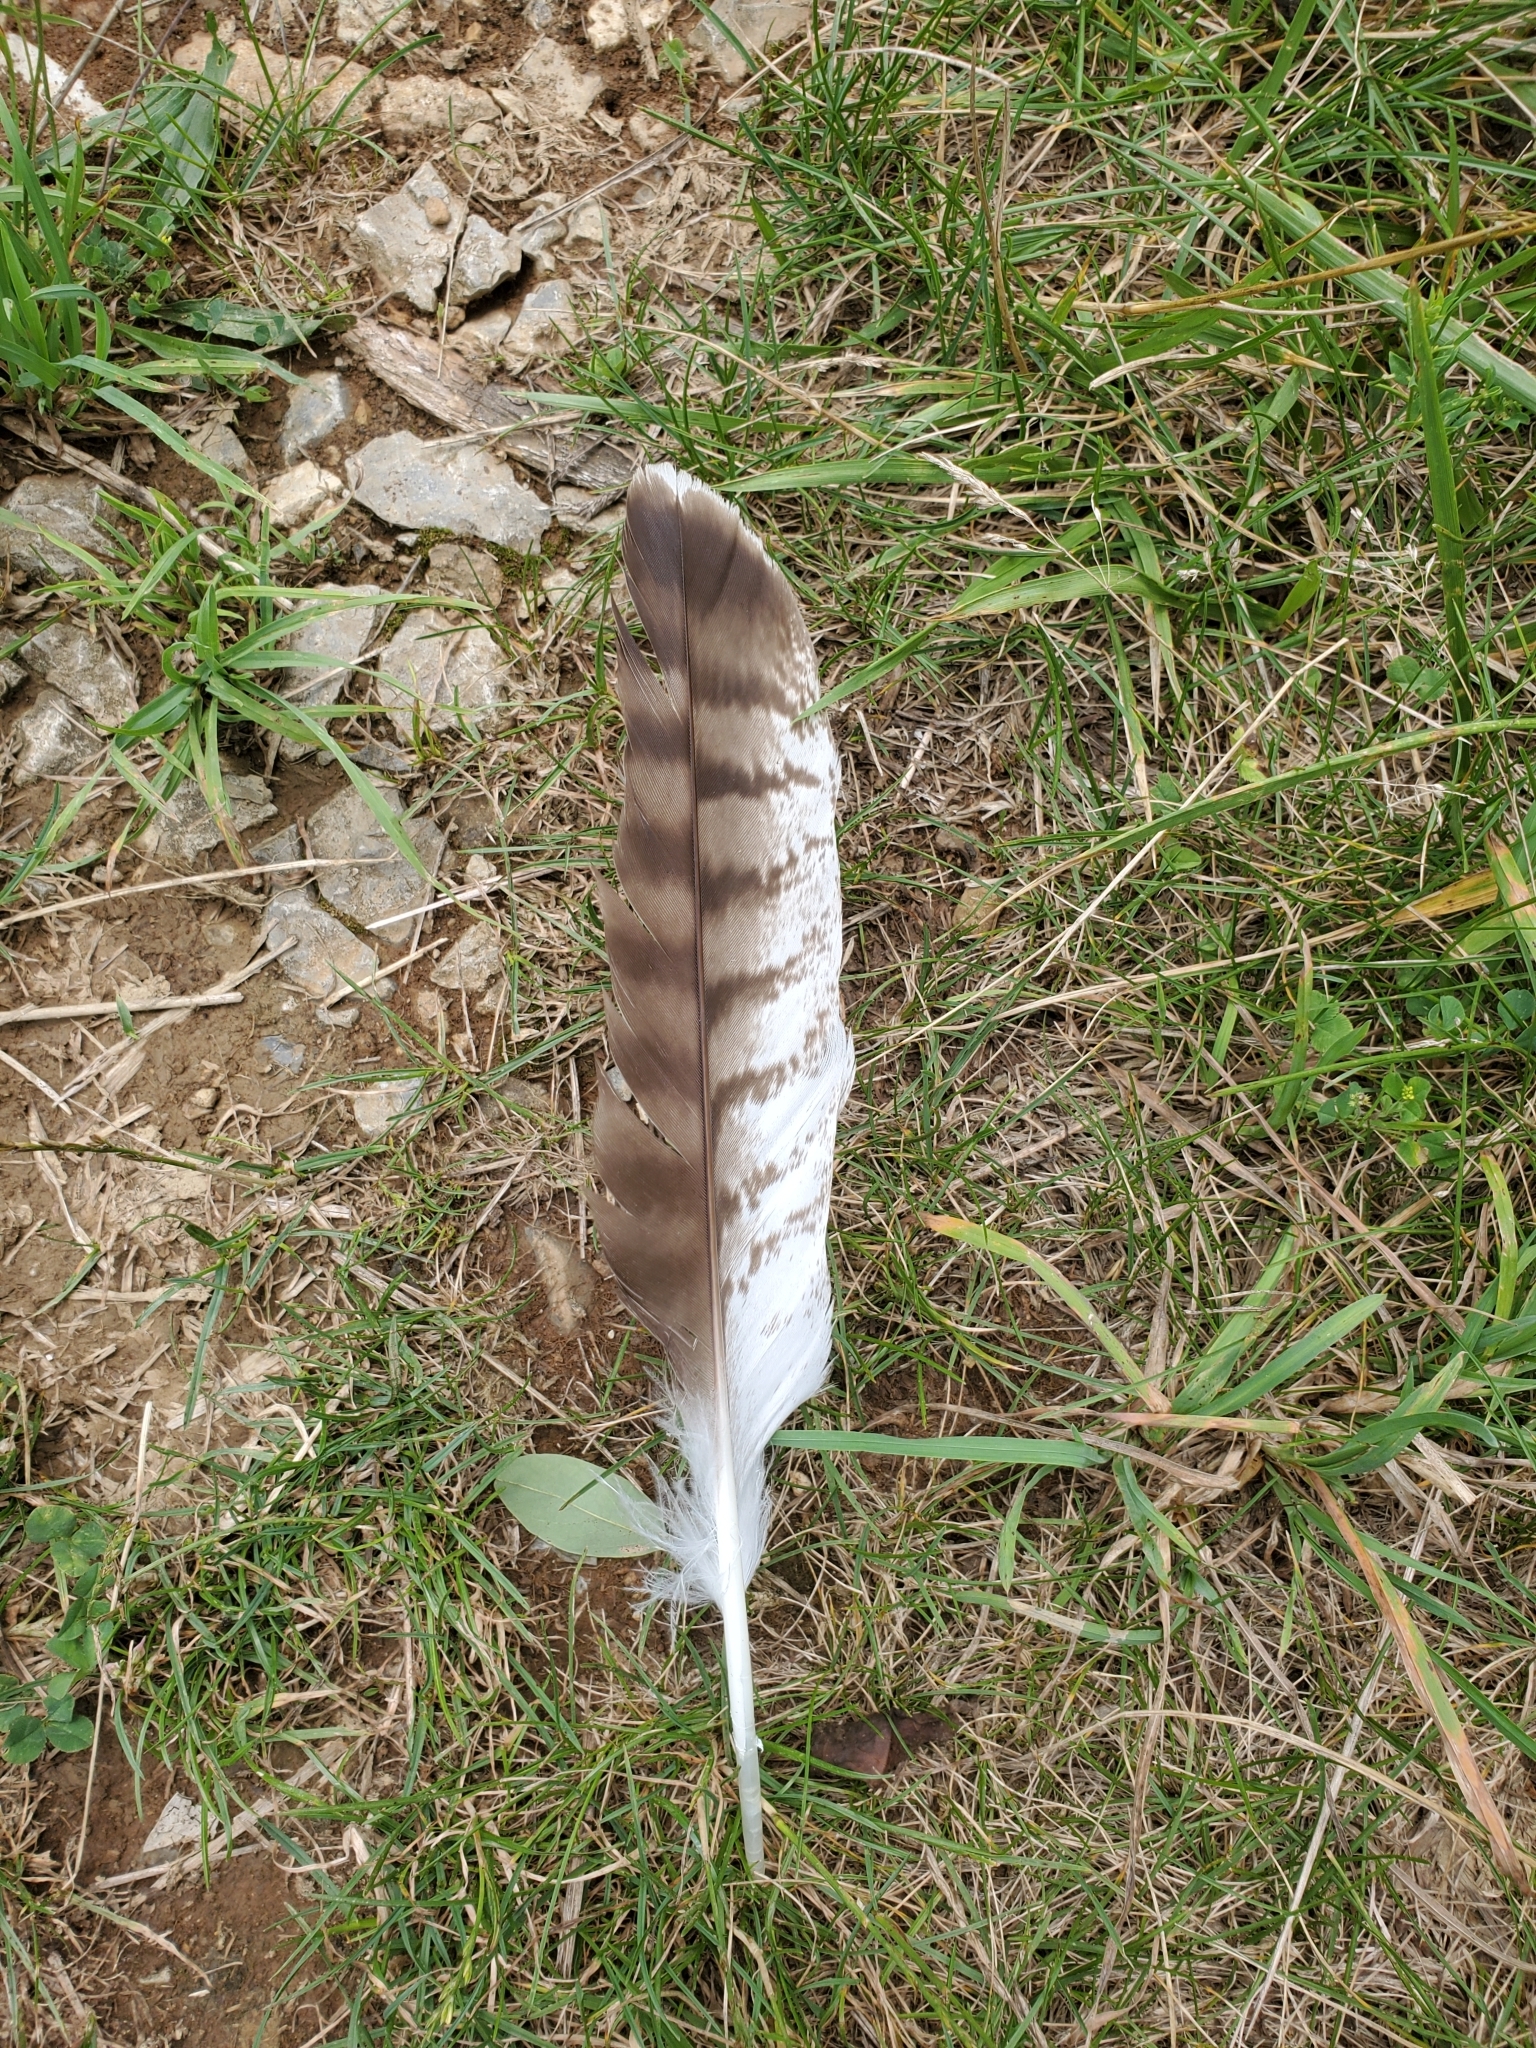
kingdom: Animalia
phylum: Chordata
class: Aves
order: Accipitriformes
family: Accipitridae
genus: Buteo
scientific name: Buteo jamaicensis
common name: Red-tailed hawk
